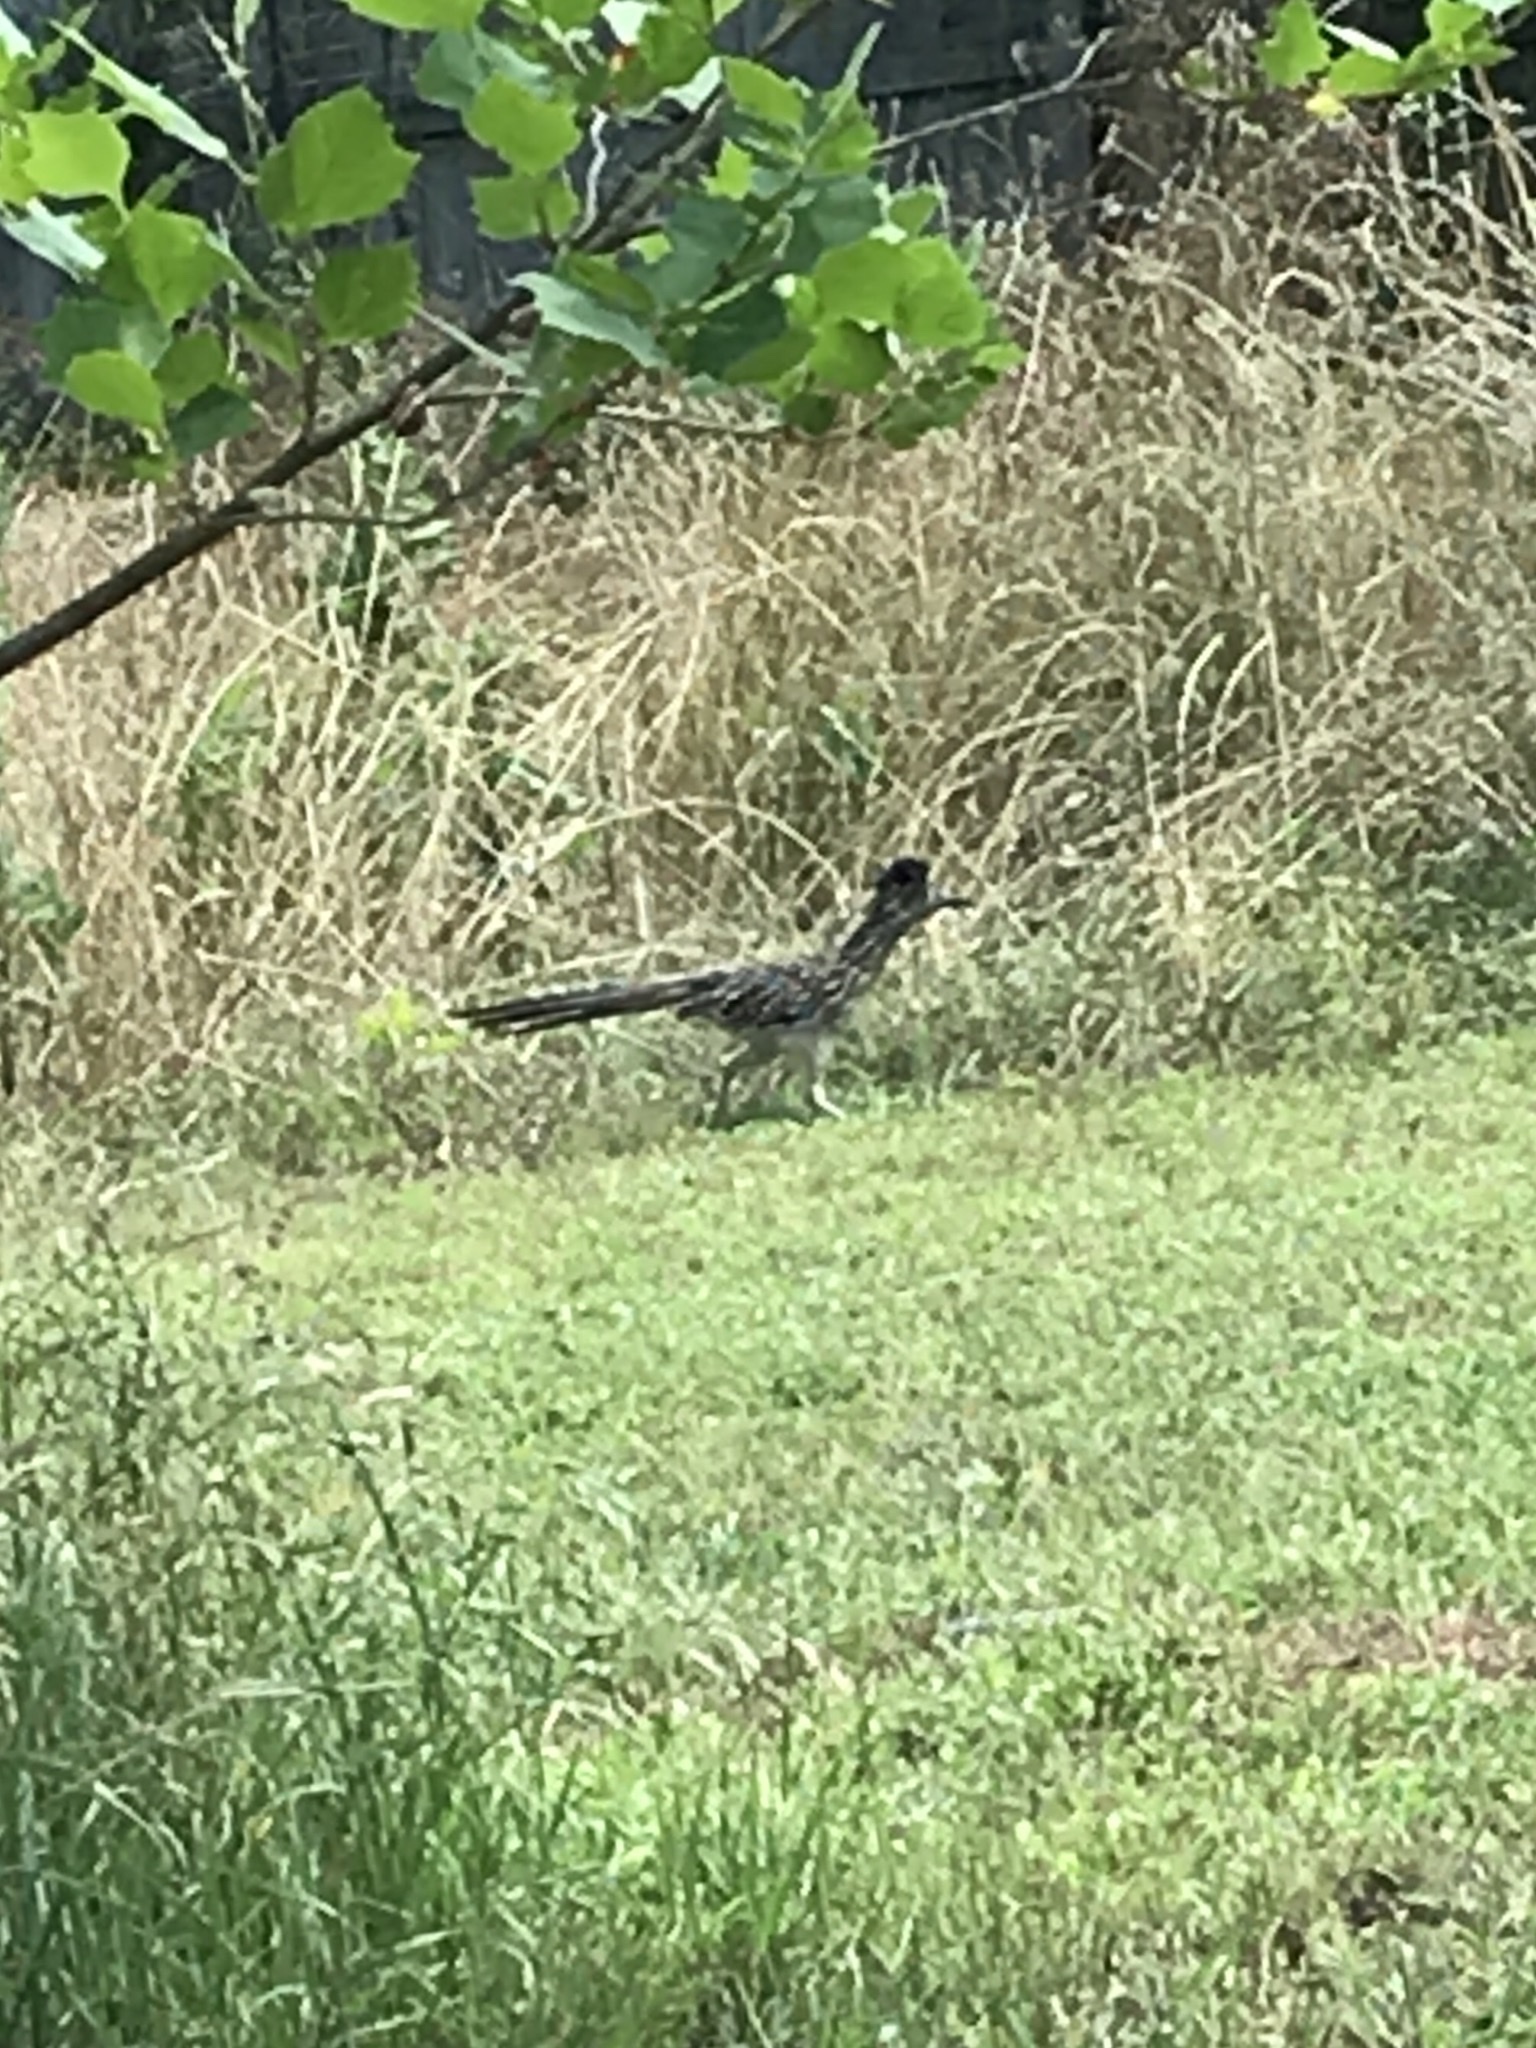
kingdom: Animalia
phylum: Chordata
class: Aves
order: Cuculiformes
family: Cuculidae
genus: Geococcyx
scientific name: Geococcyx californianus
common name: Greater roadrunner
